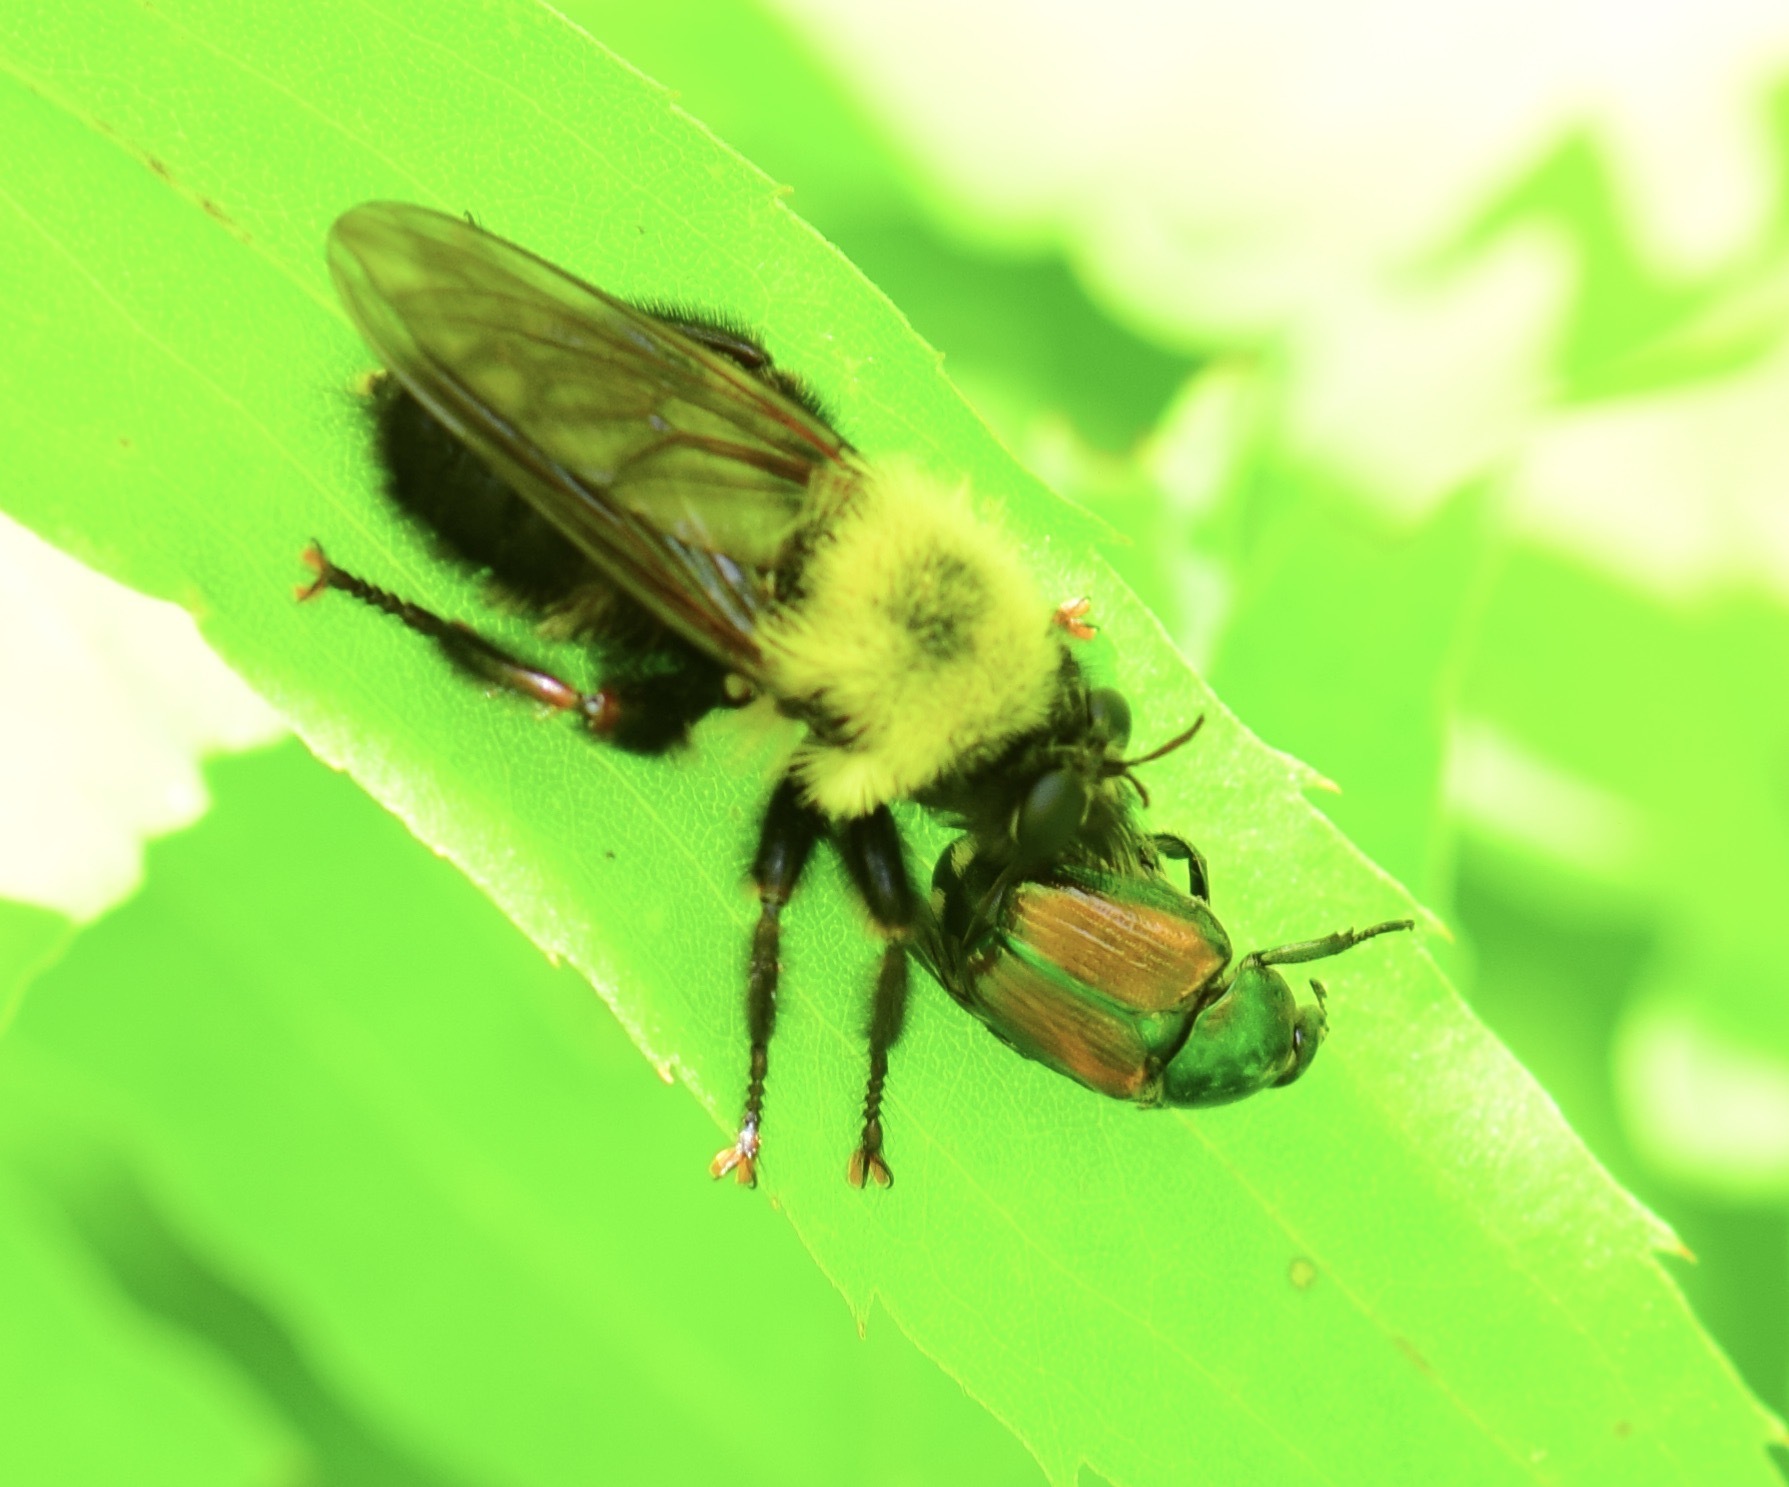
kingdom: Animalia
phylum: Arthropoda
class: Insecta
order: Diptera
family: Asilidae
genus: Laphria
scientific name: Laphria thoracica
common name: Bumble bee mimic robber fly
